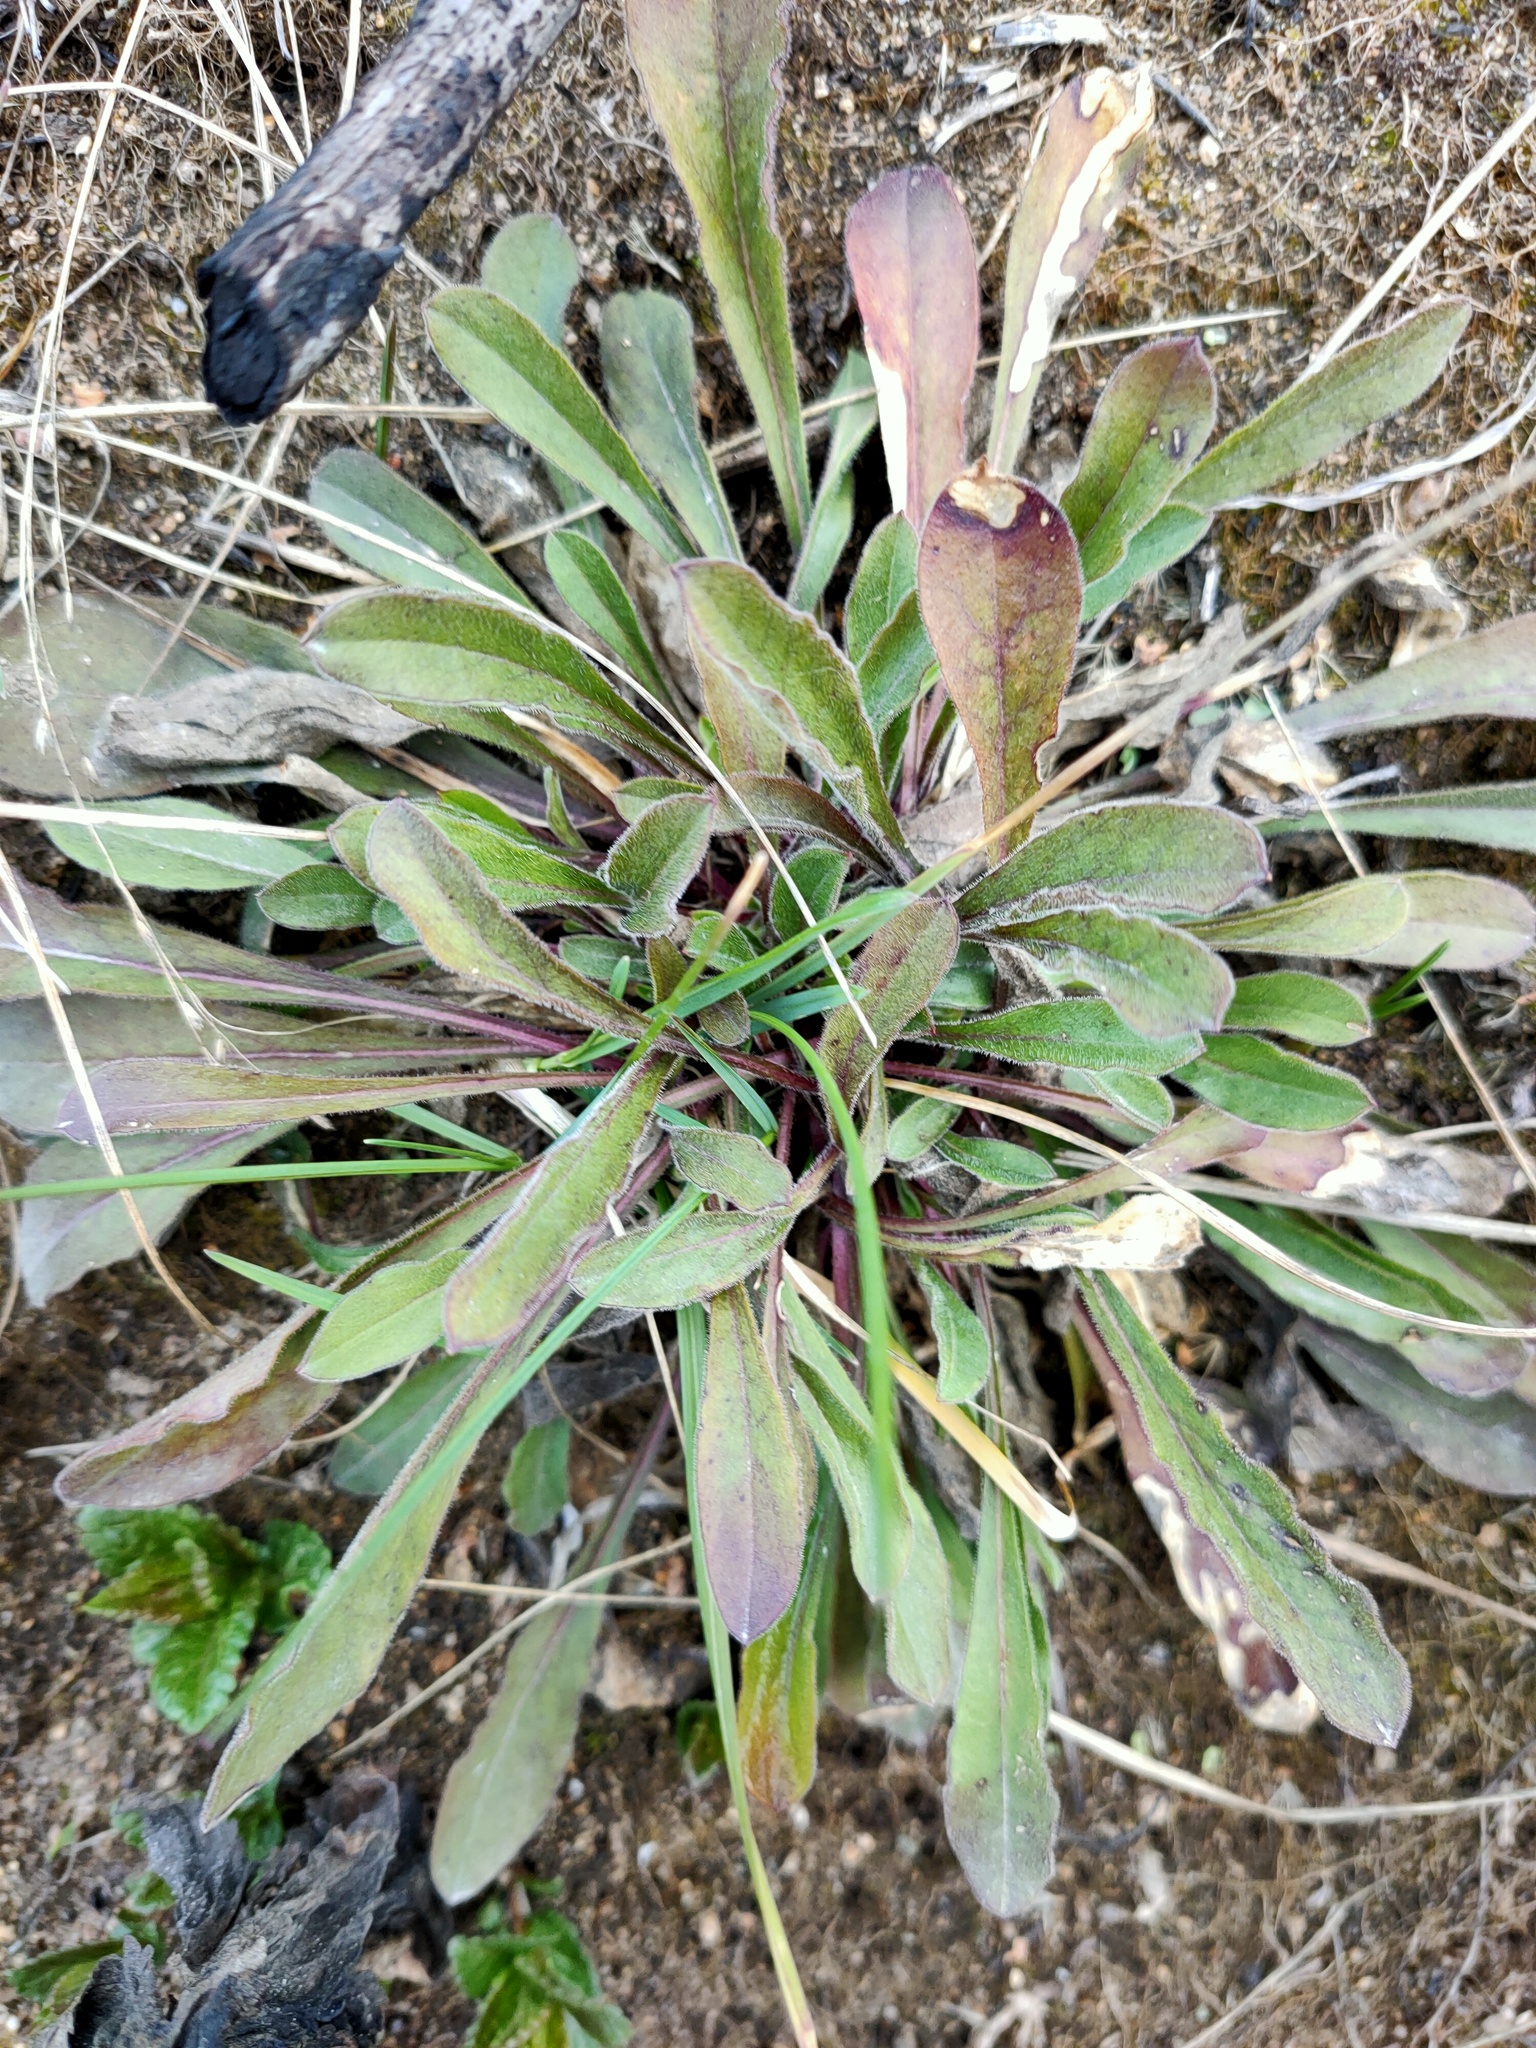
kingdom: Plantae
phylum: Tracheophyta
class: Magnoliopsida
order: Caryophyllales
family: Caryophyllaceae
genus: Silene
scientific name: Silene nutans
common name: Nottingham catchfly
